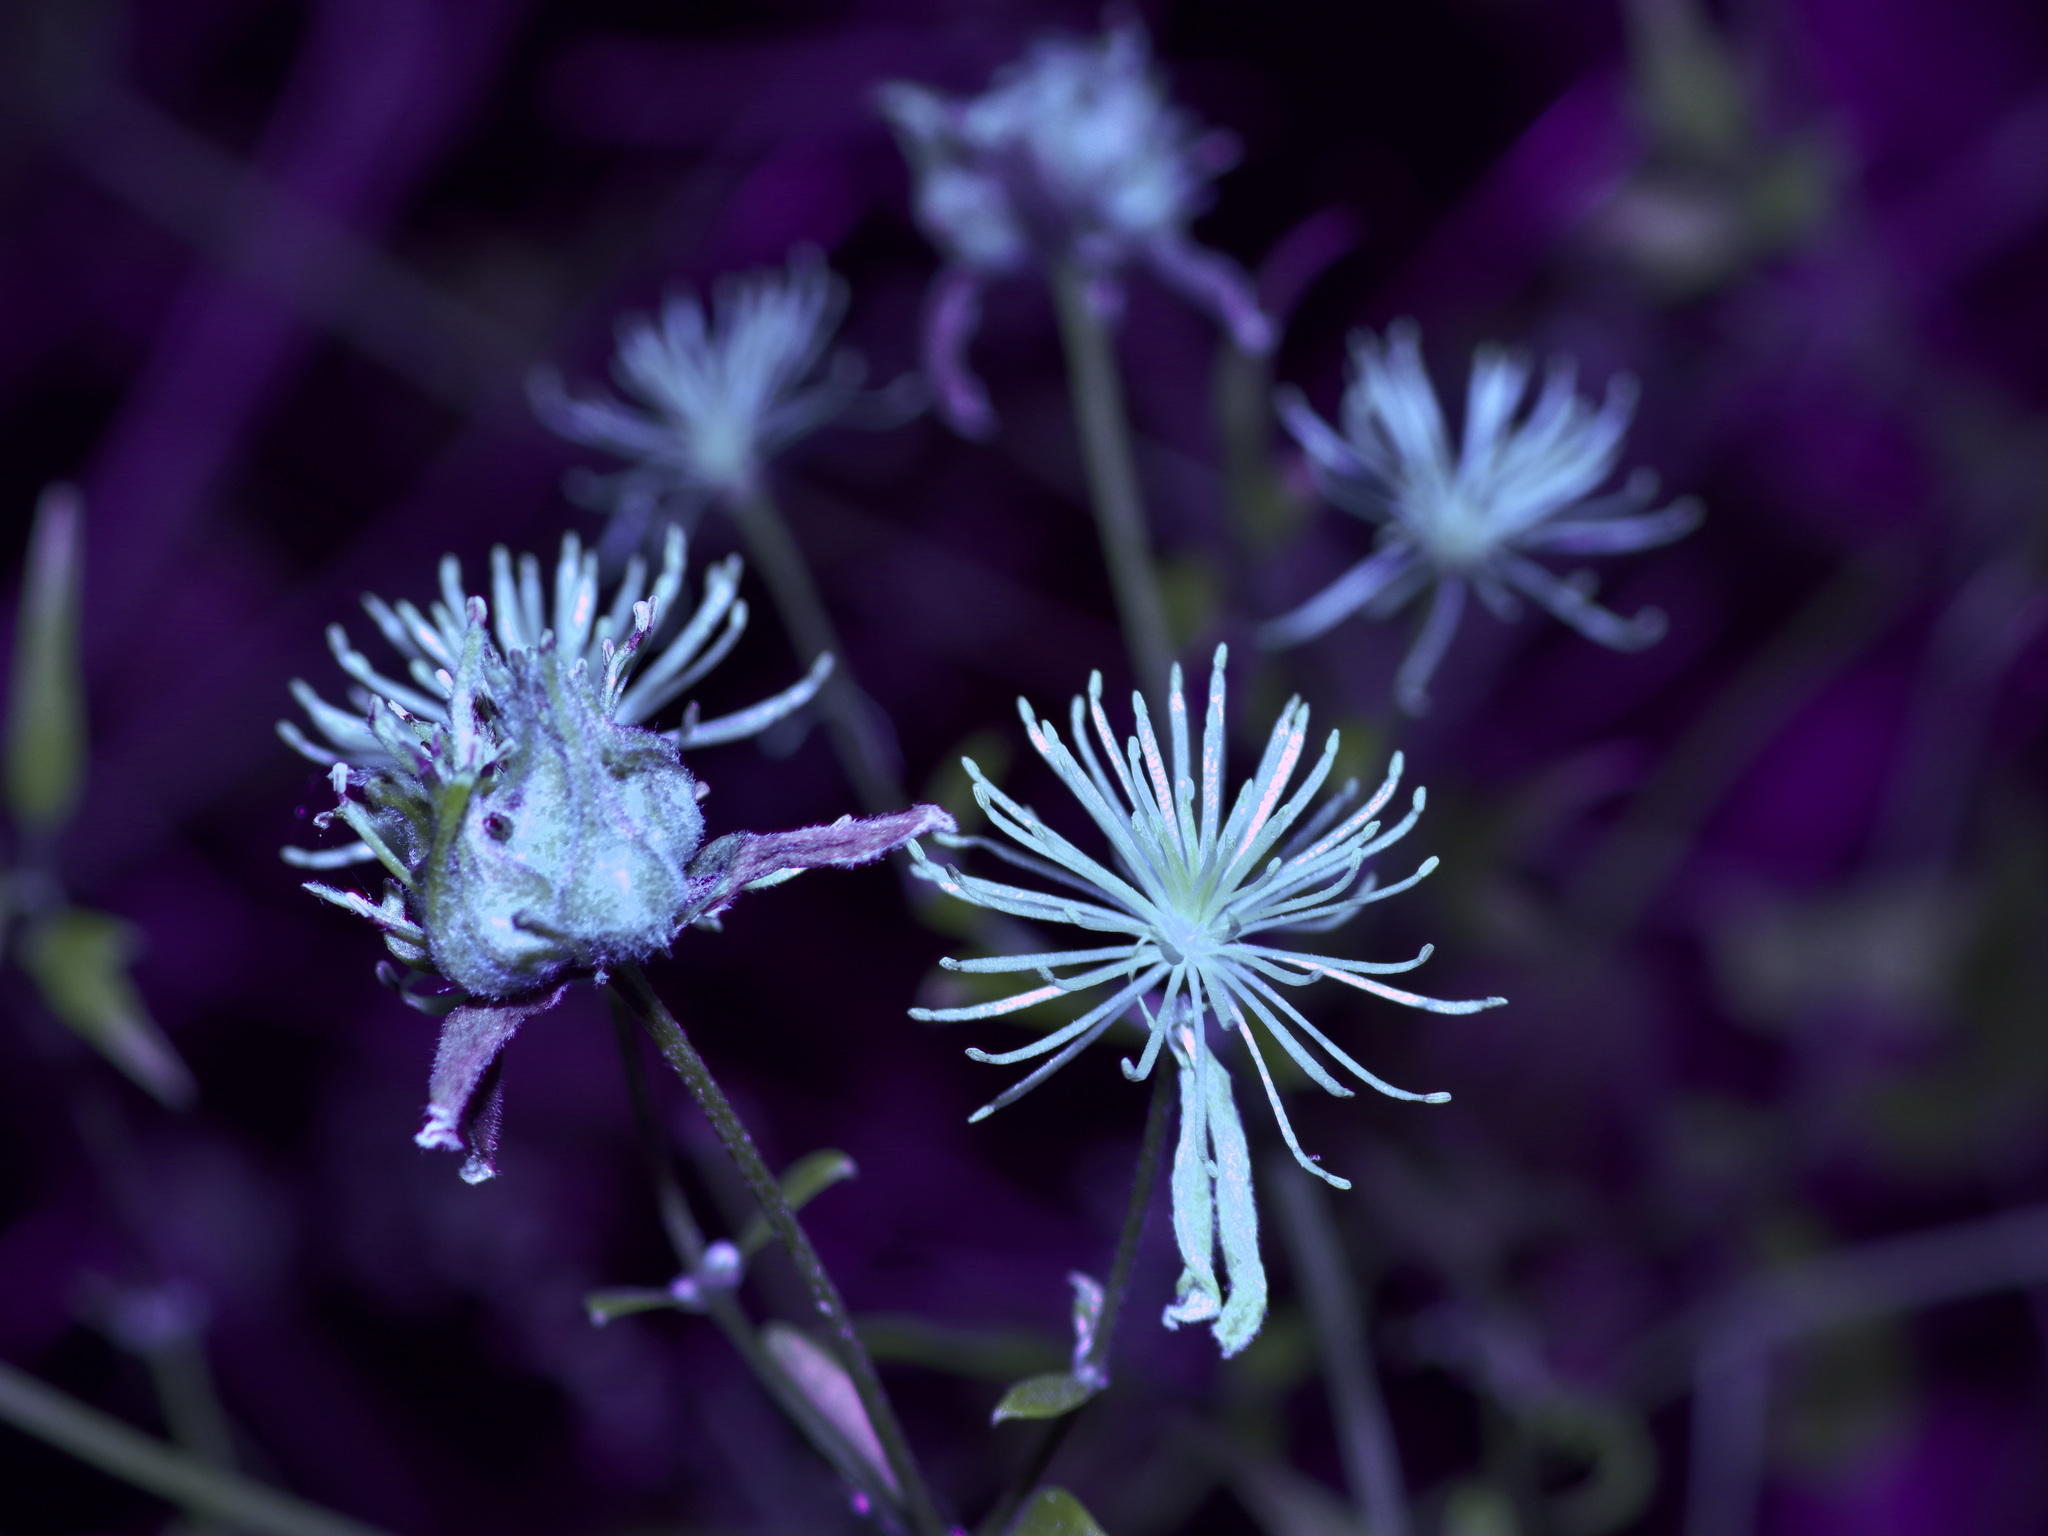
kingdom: Plantae
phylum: Tracheophyta
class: Magnoliopsida
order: Ranunculales
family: Ranunculaceae
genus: Clematis
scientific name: Clematis drummondii
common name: Texas virgin's bower
